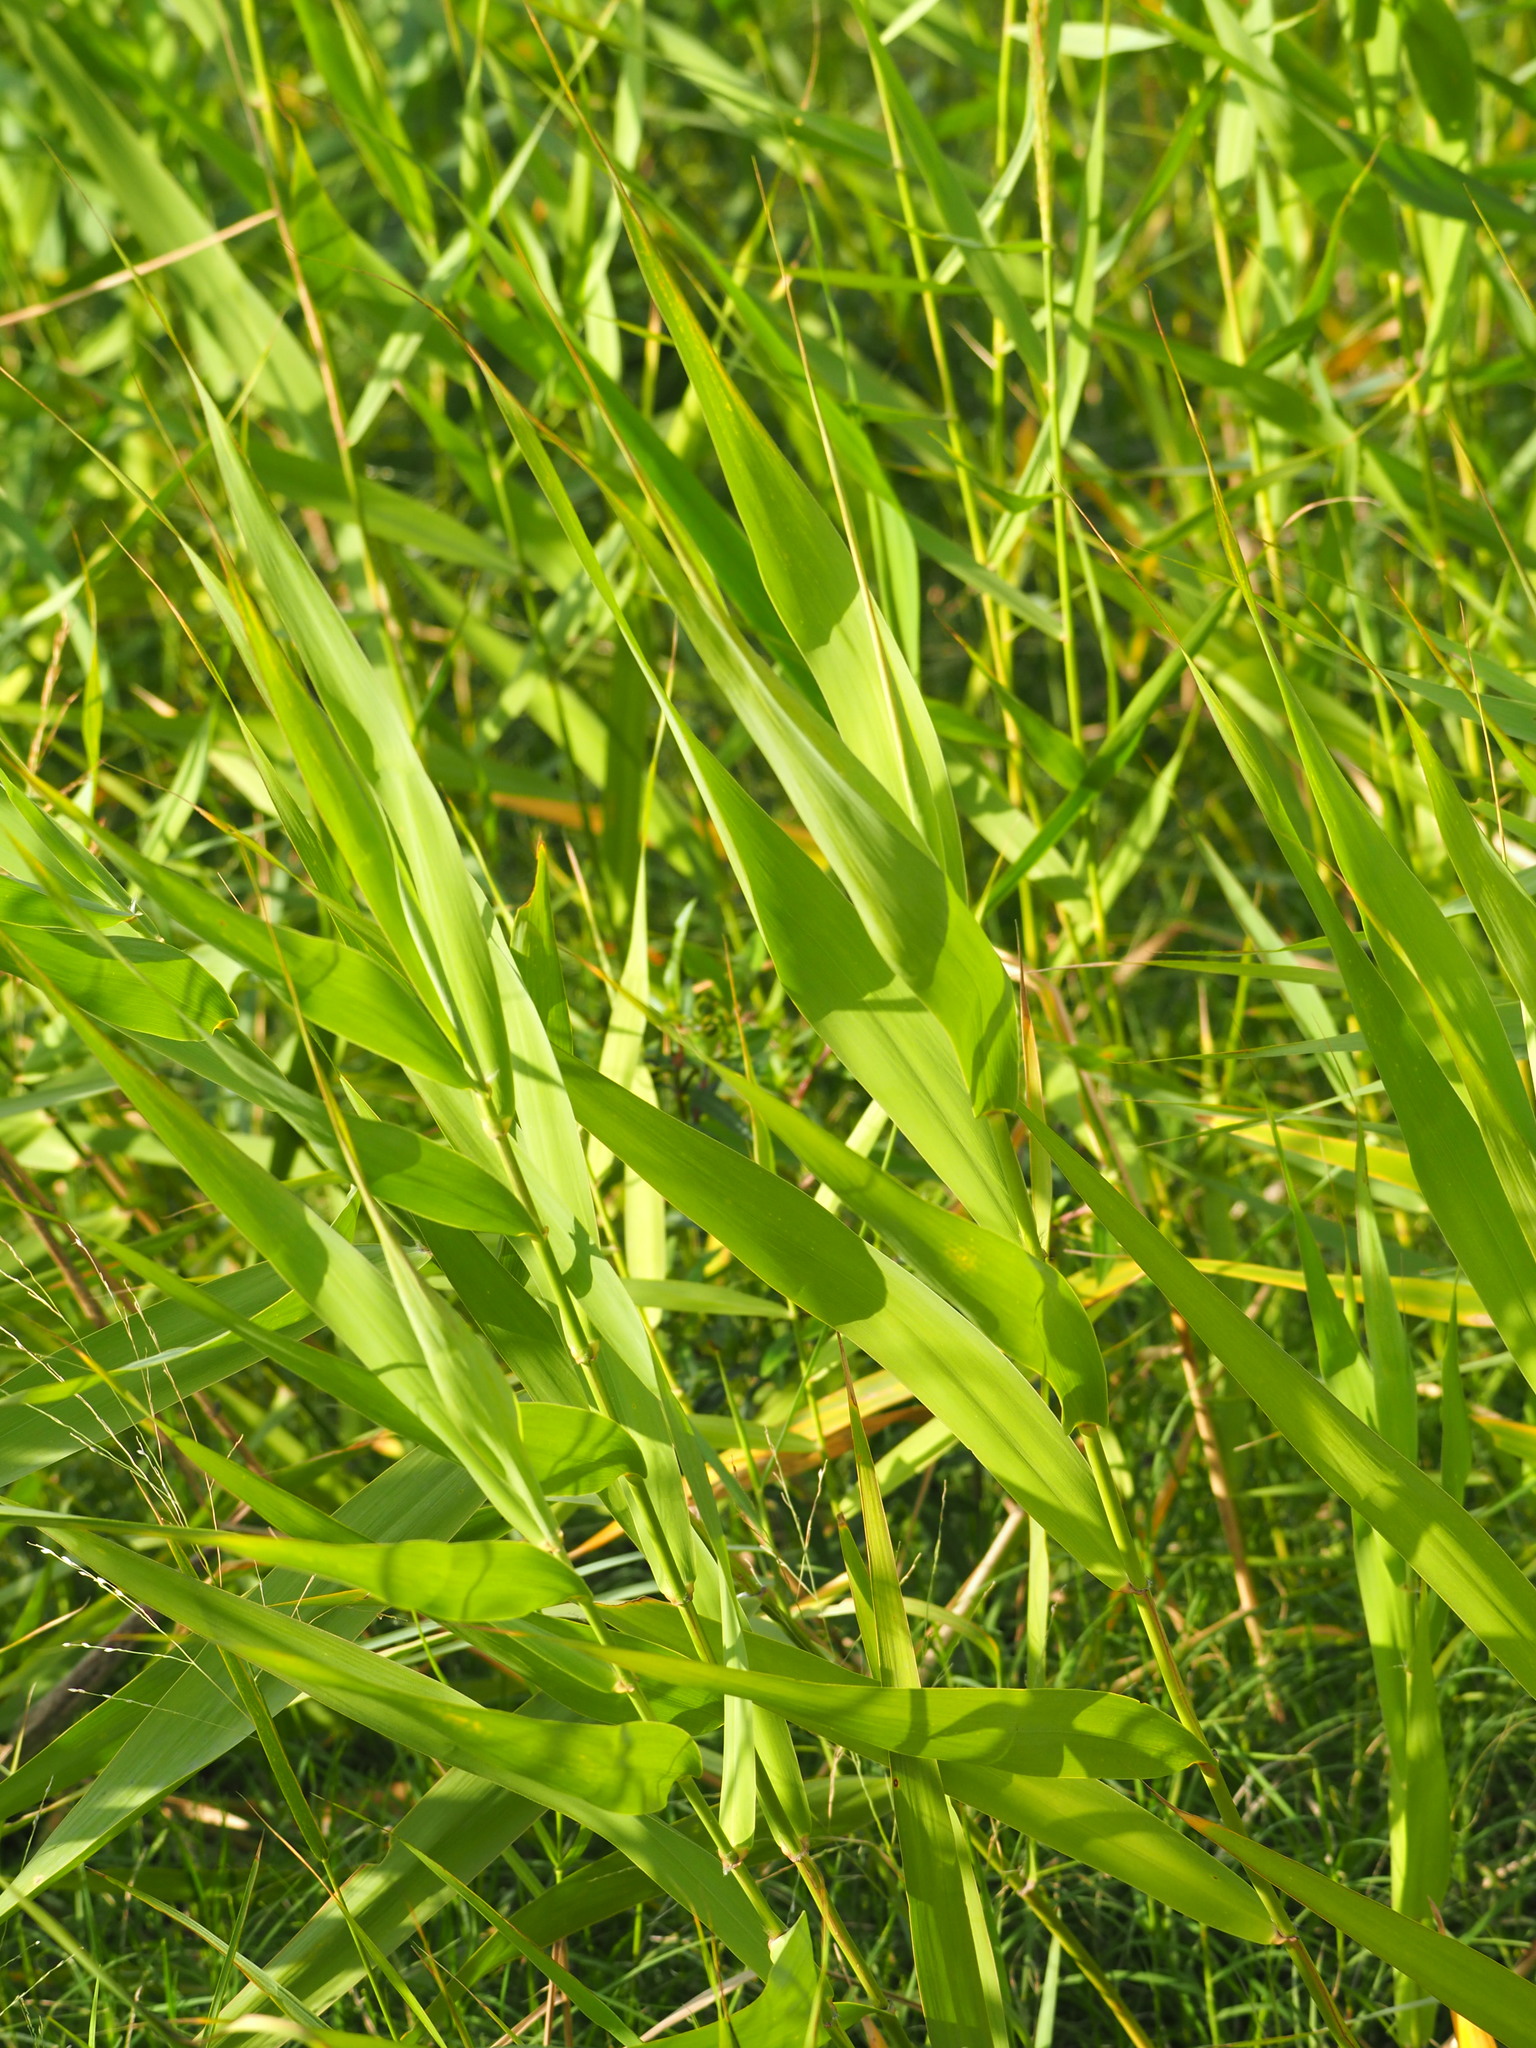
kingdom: Plantae
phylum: Tracheophyta
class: Liliopsida
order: Poales
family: Poaceae
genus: Phragmites
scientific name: Phragmites karka
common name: Tropical reed
